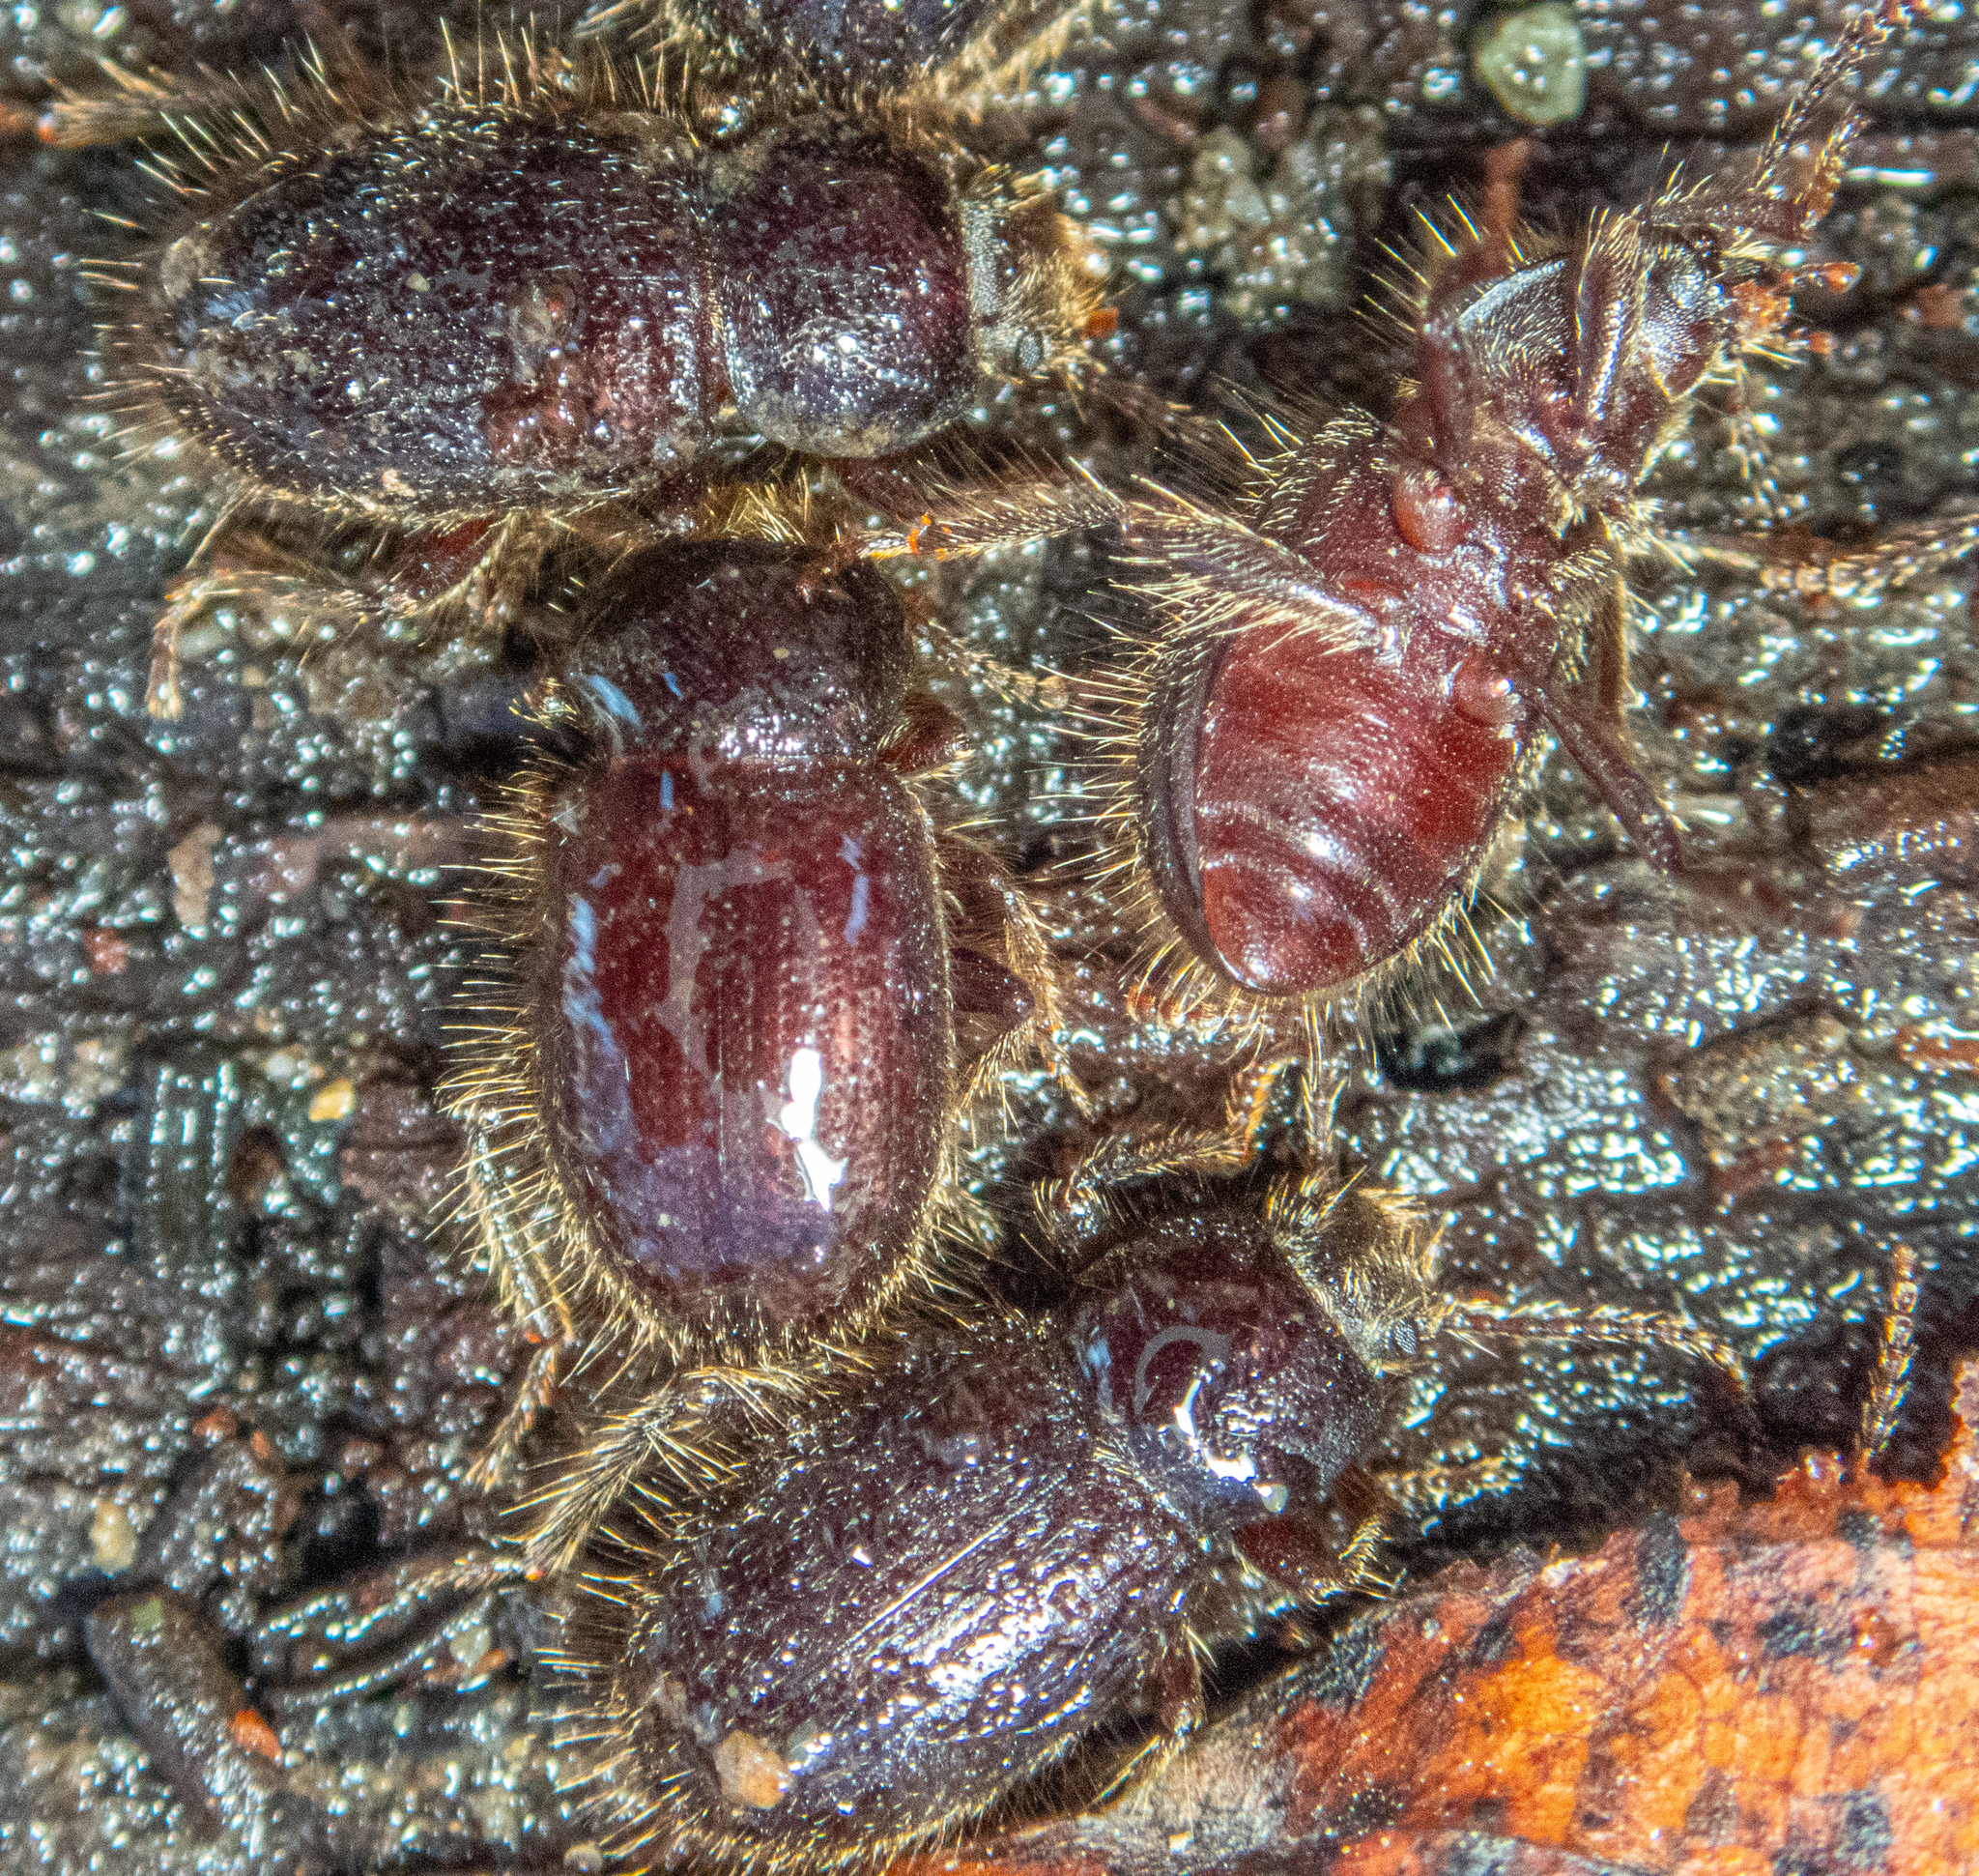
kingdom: Animalia
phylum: Arthropoda
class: Insecta
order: Coleoptera
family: Tenebrionidae
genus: Eleodes
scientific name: Eleodes littoralis
